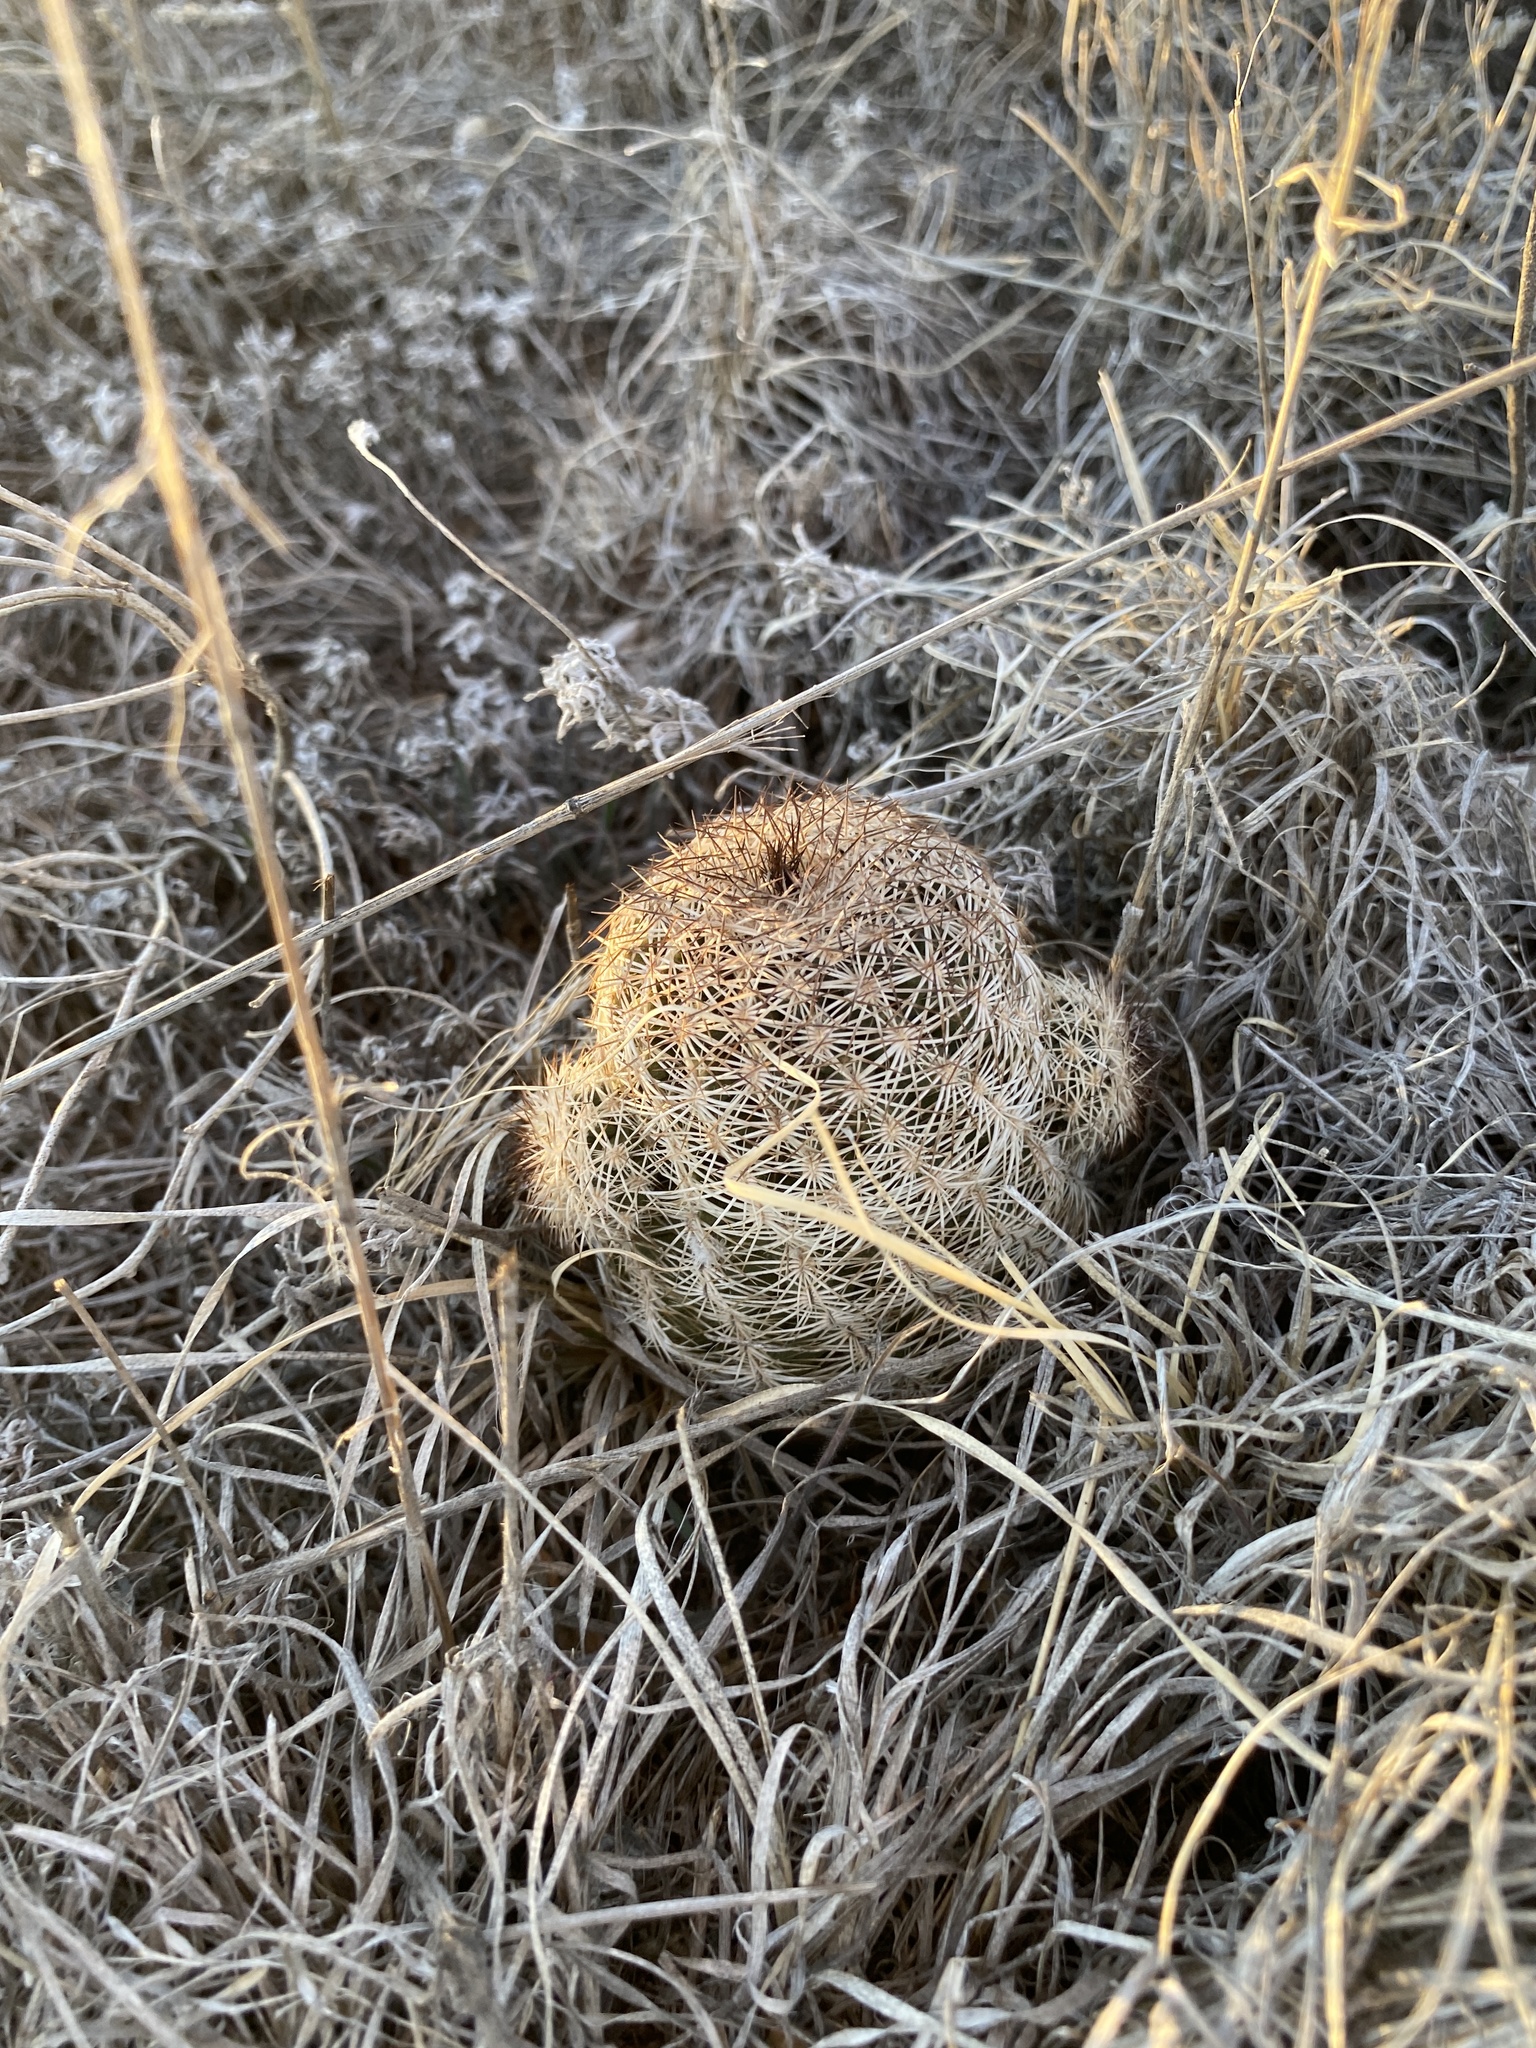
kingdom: Plantae
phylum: Tracheophyta
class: Magnoliopsida
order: Caryophyllales
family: Cactaceae
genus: Echinocereus
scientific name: Echinocereus reichenbachii
